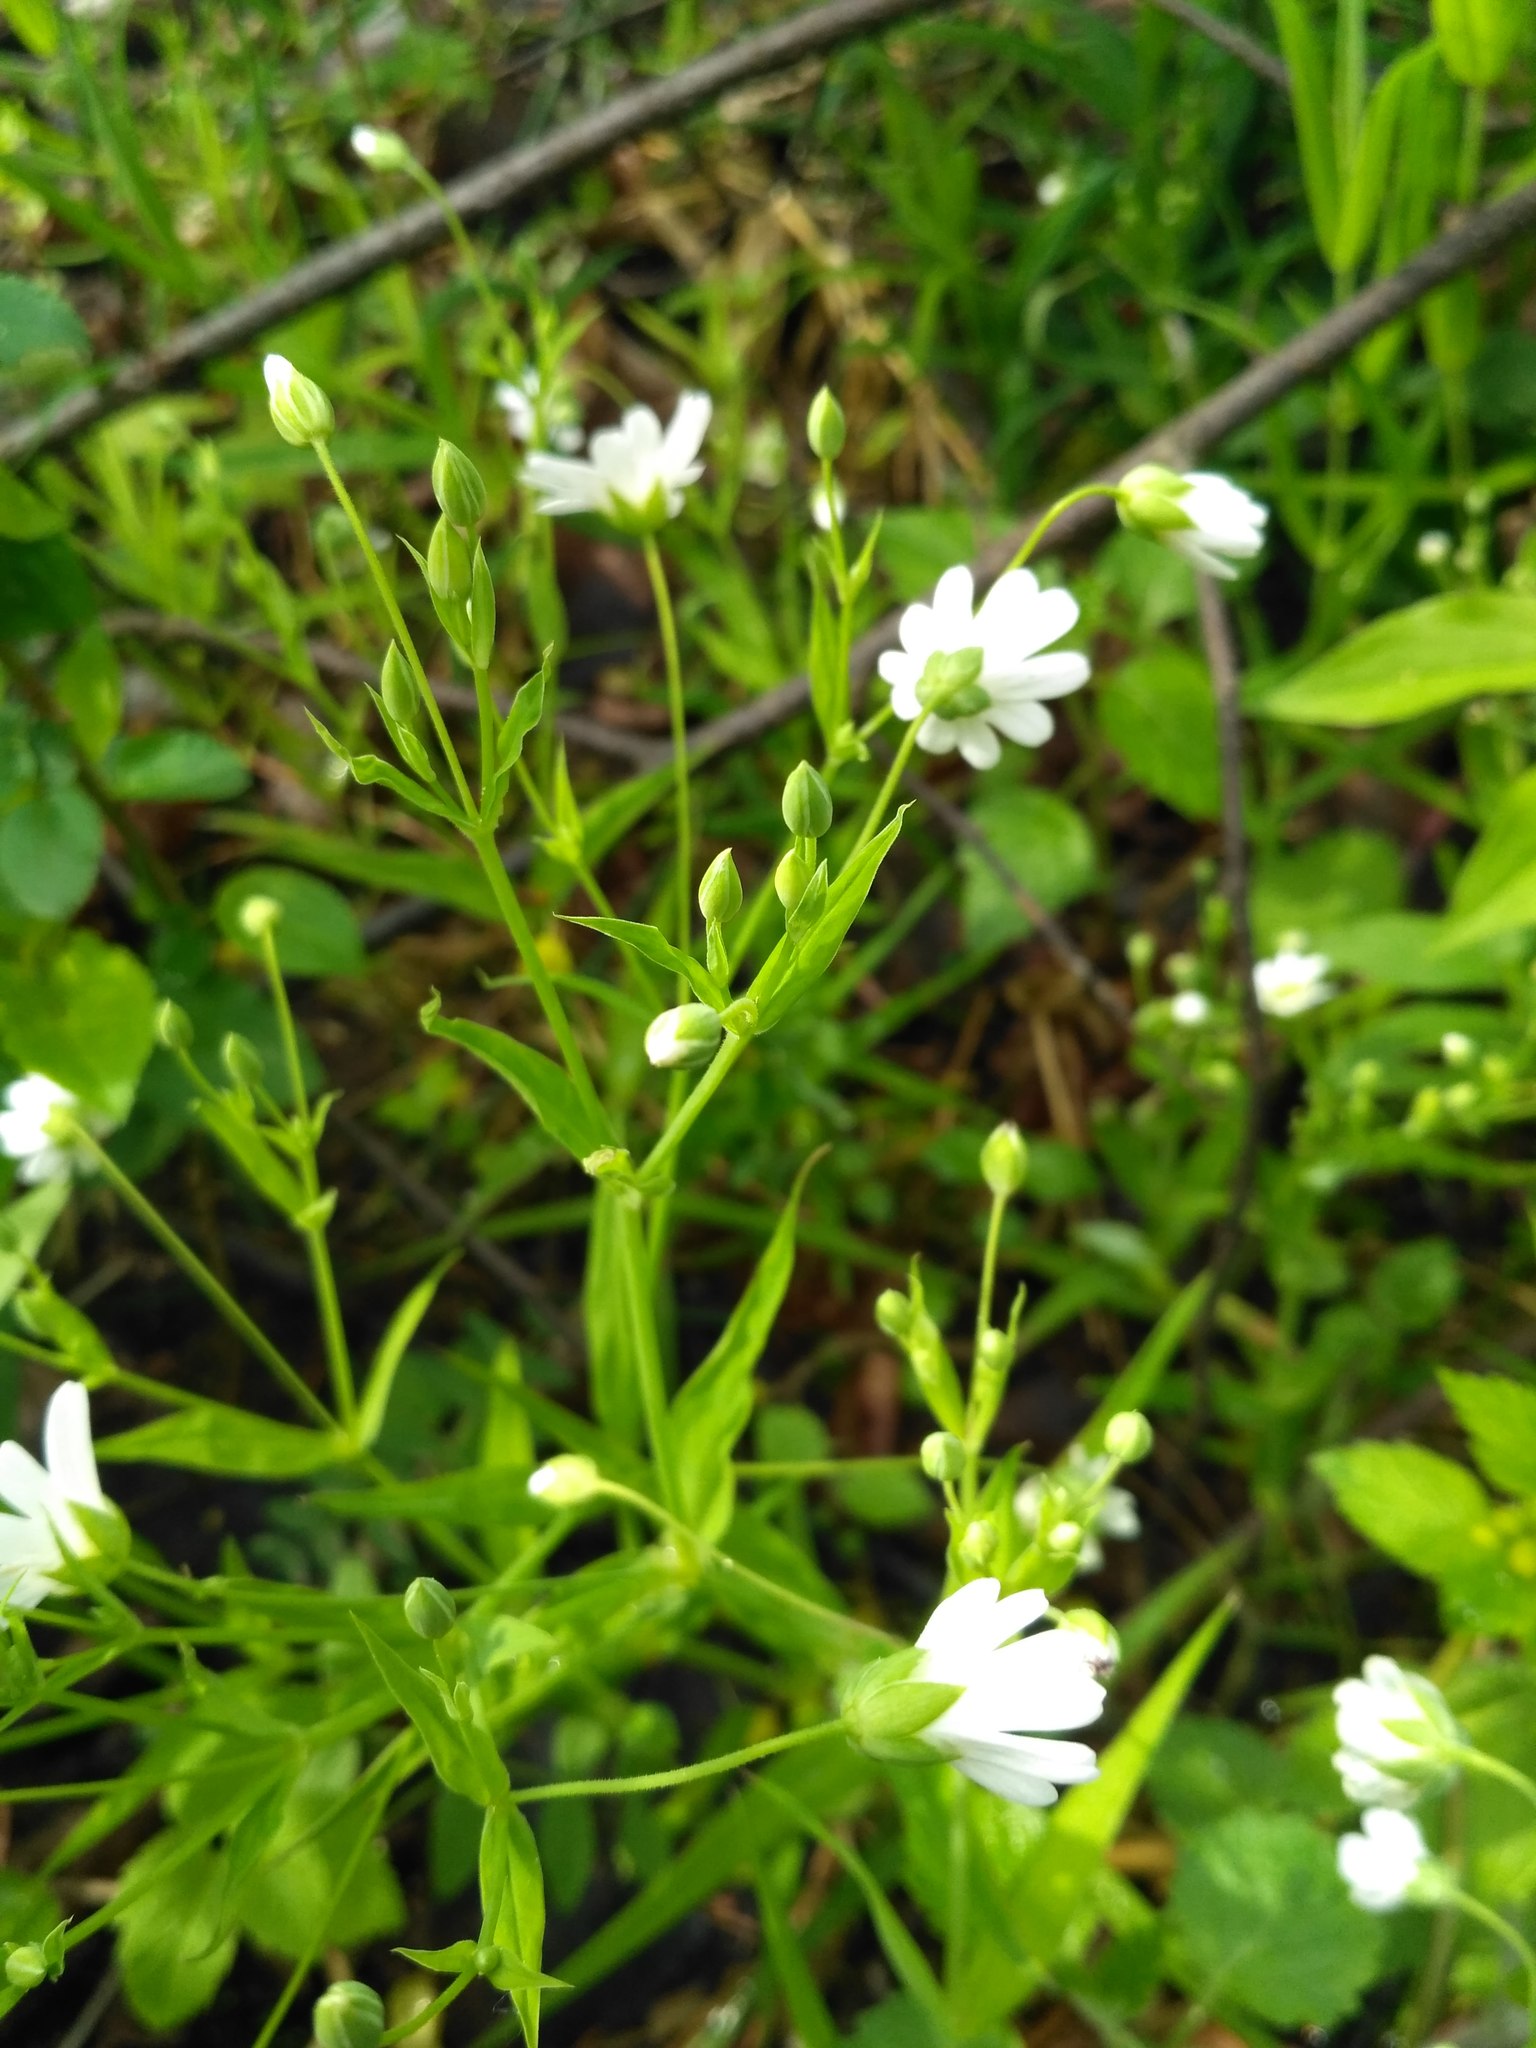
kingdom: Plantae
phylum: Tracheophyta
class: Magnoliopsida
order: Caryophyllales
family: Caryophyllaceae
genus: Rabelera
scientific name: Rabelera holostea
